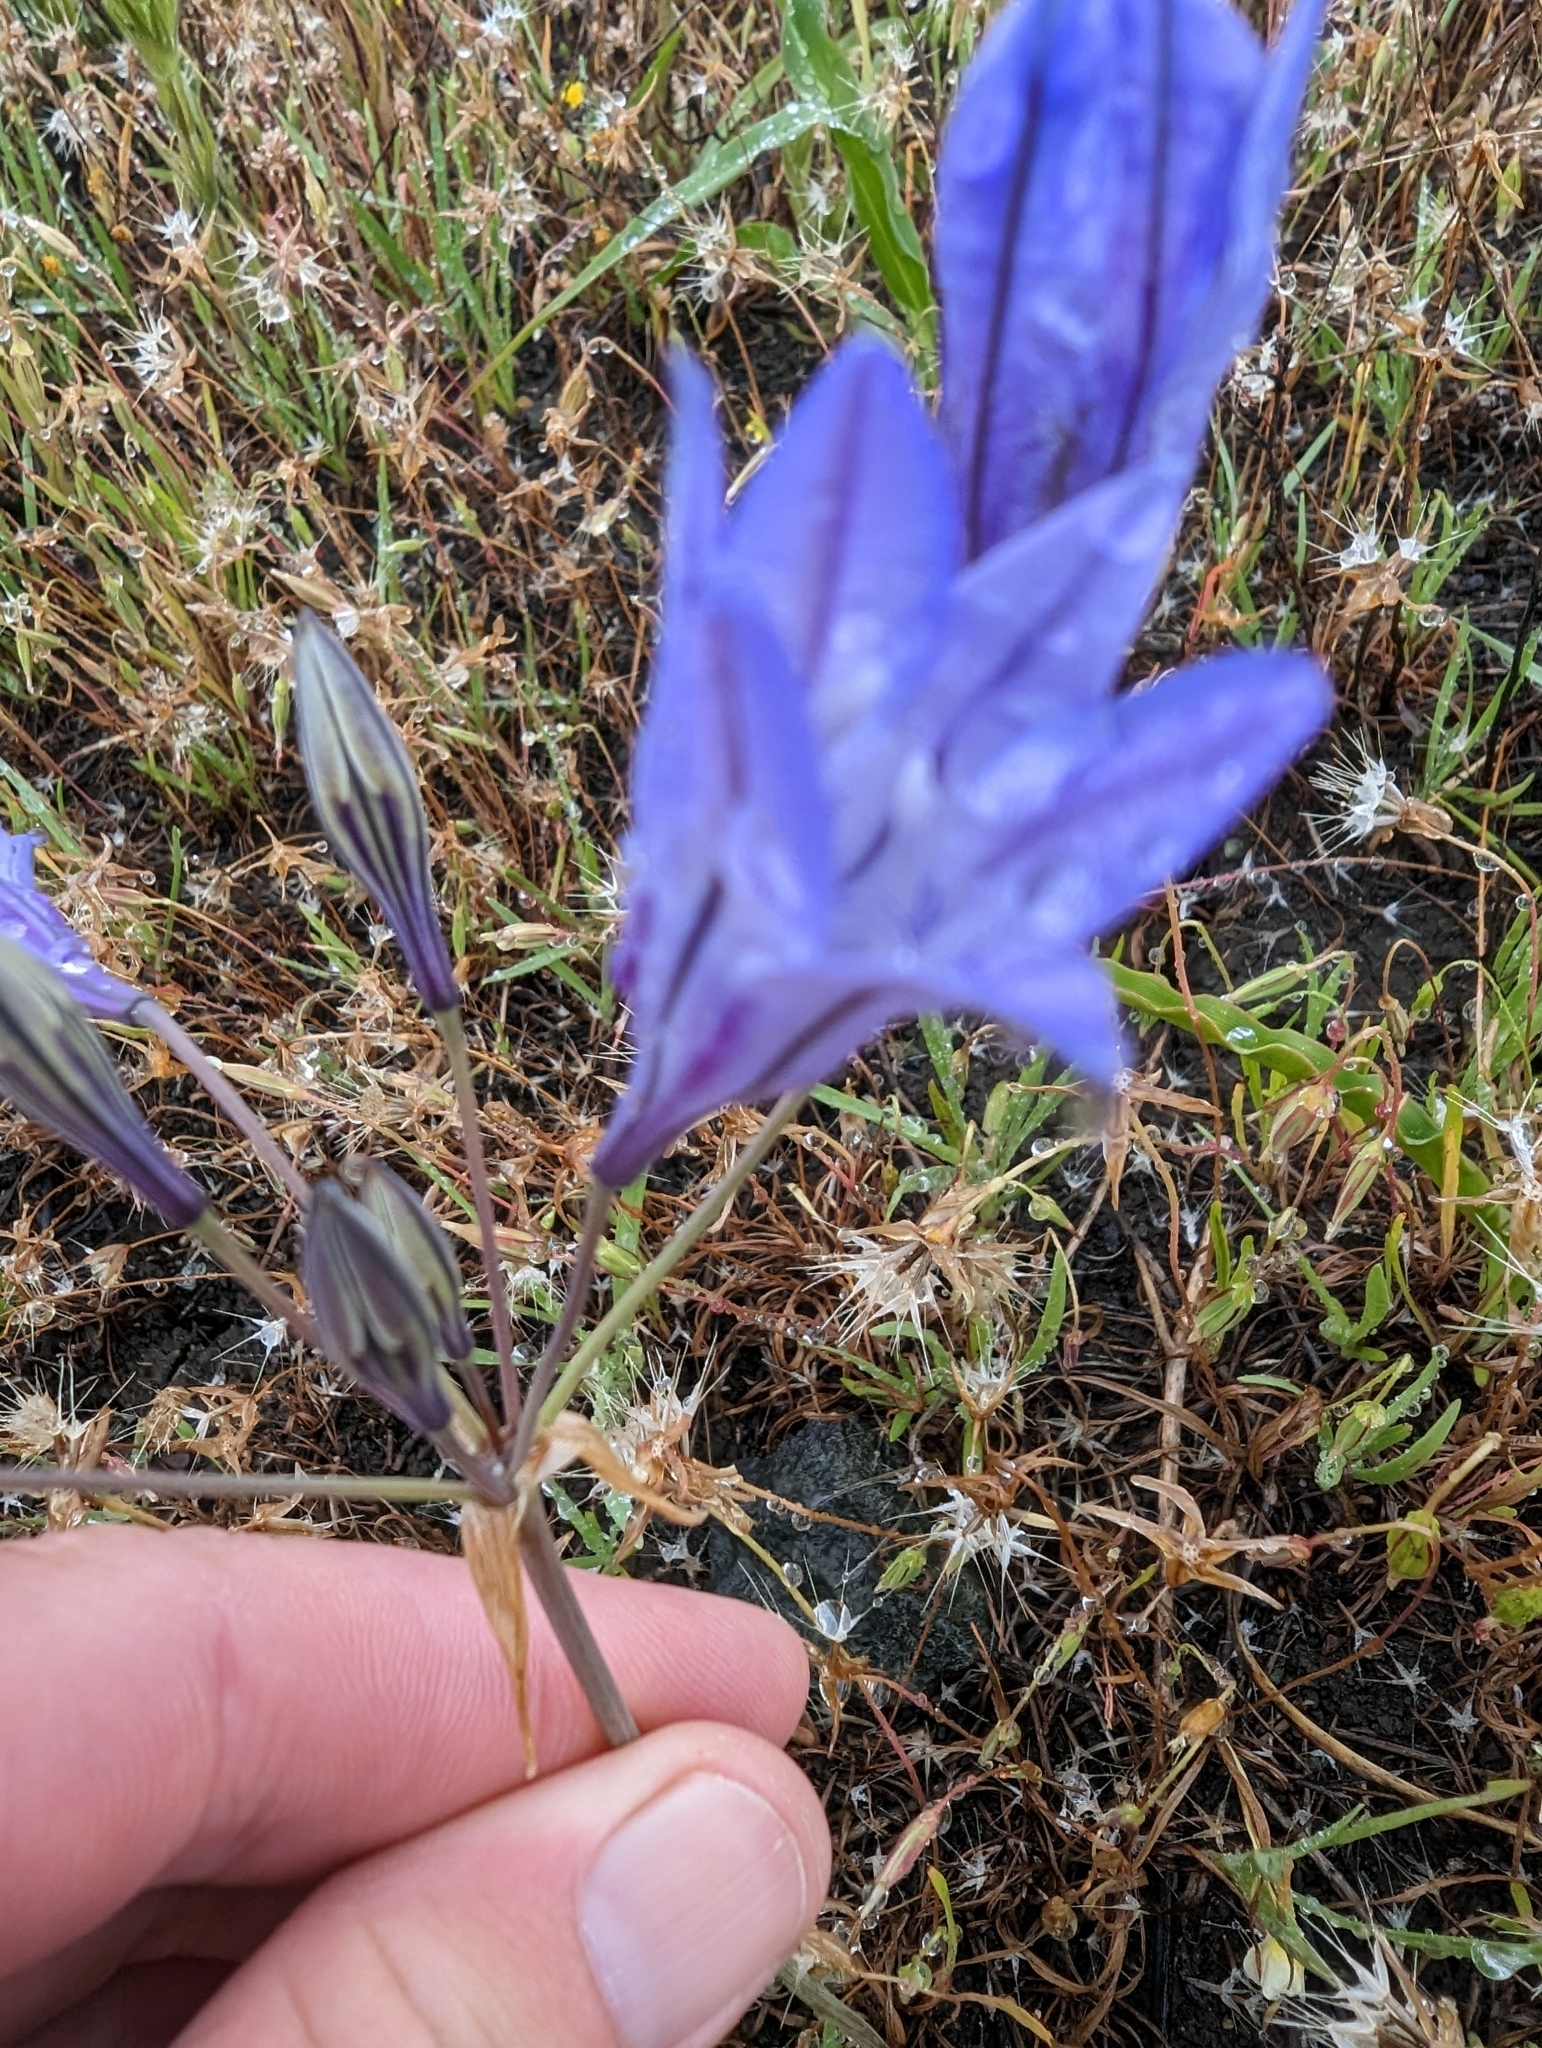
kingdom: Plantae
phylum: Tracheophyta
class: Liliopsida
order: Asparagales
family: Asparagaceae
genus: Triteleia
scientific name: Triteleia laxa
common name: Triplet-lily
